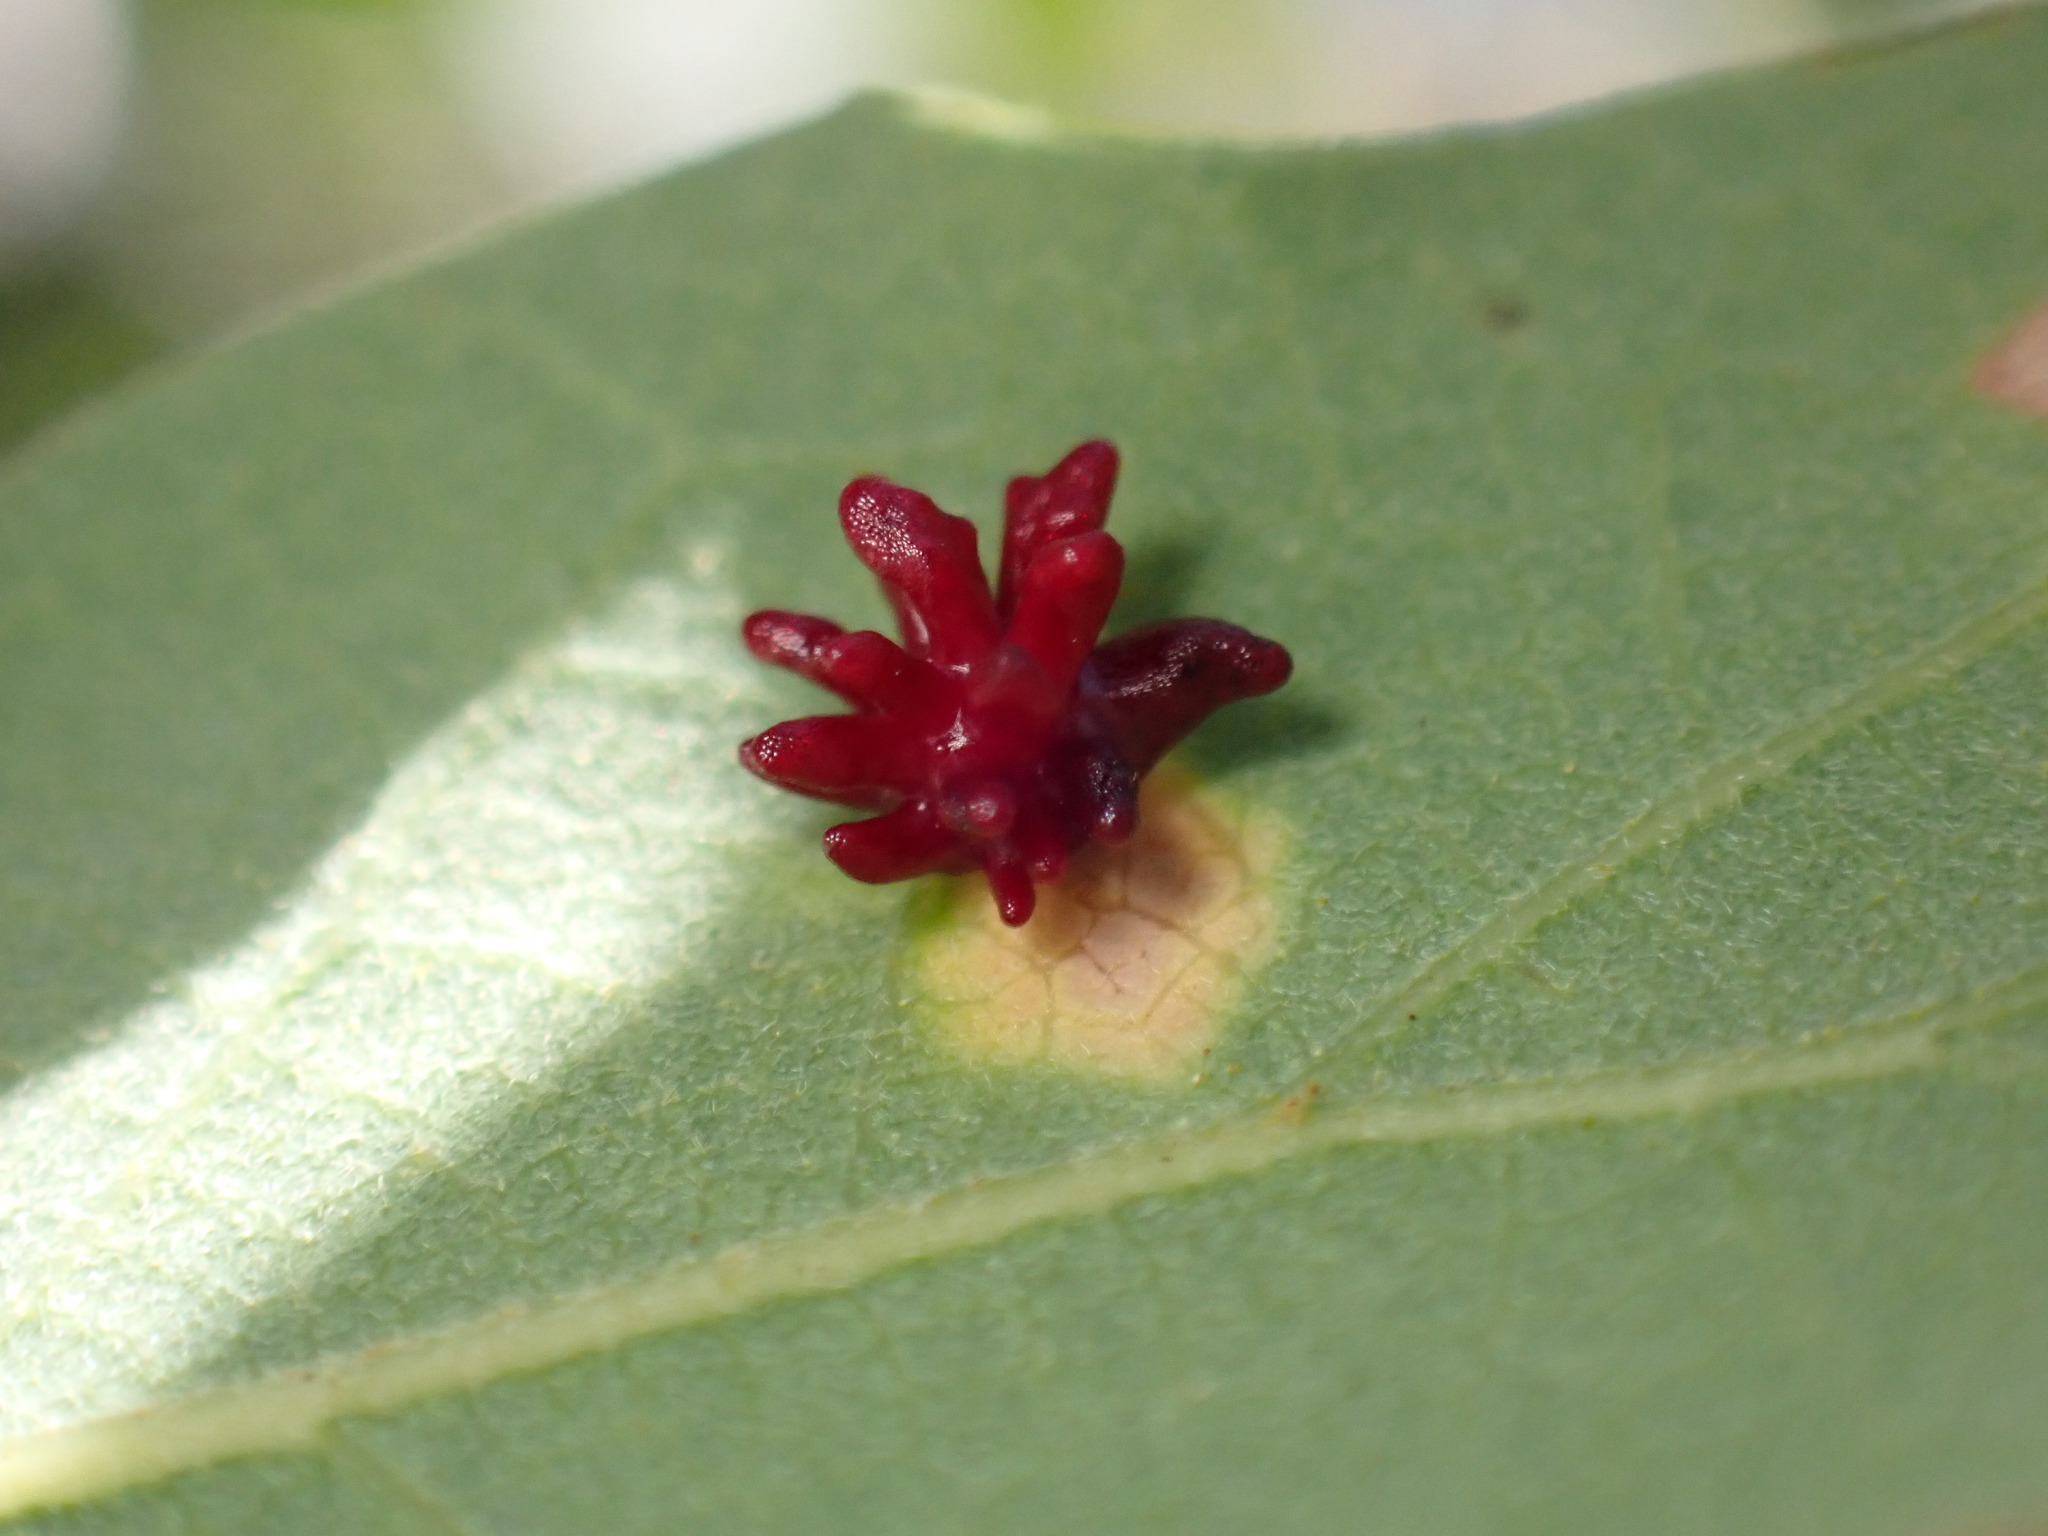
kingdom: Animalia
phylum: Arthropoda
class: Insecta
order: Hymenoptera
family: Cynipidae
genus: Cynips
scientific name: Cynips
